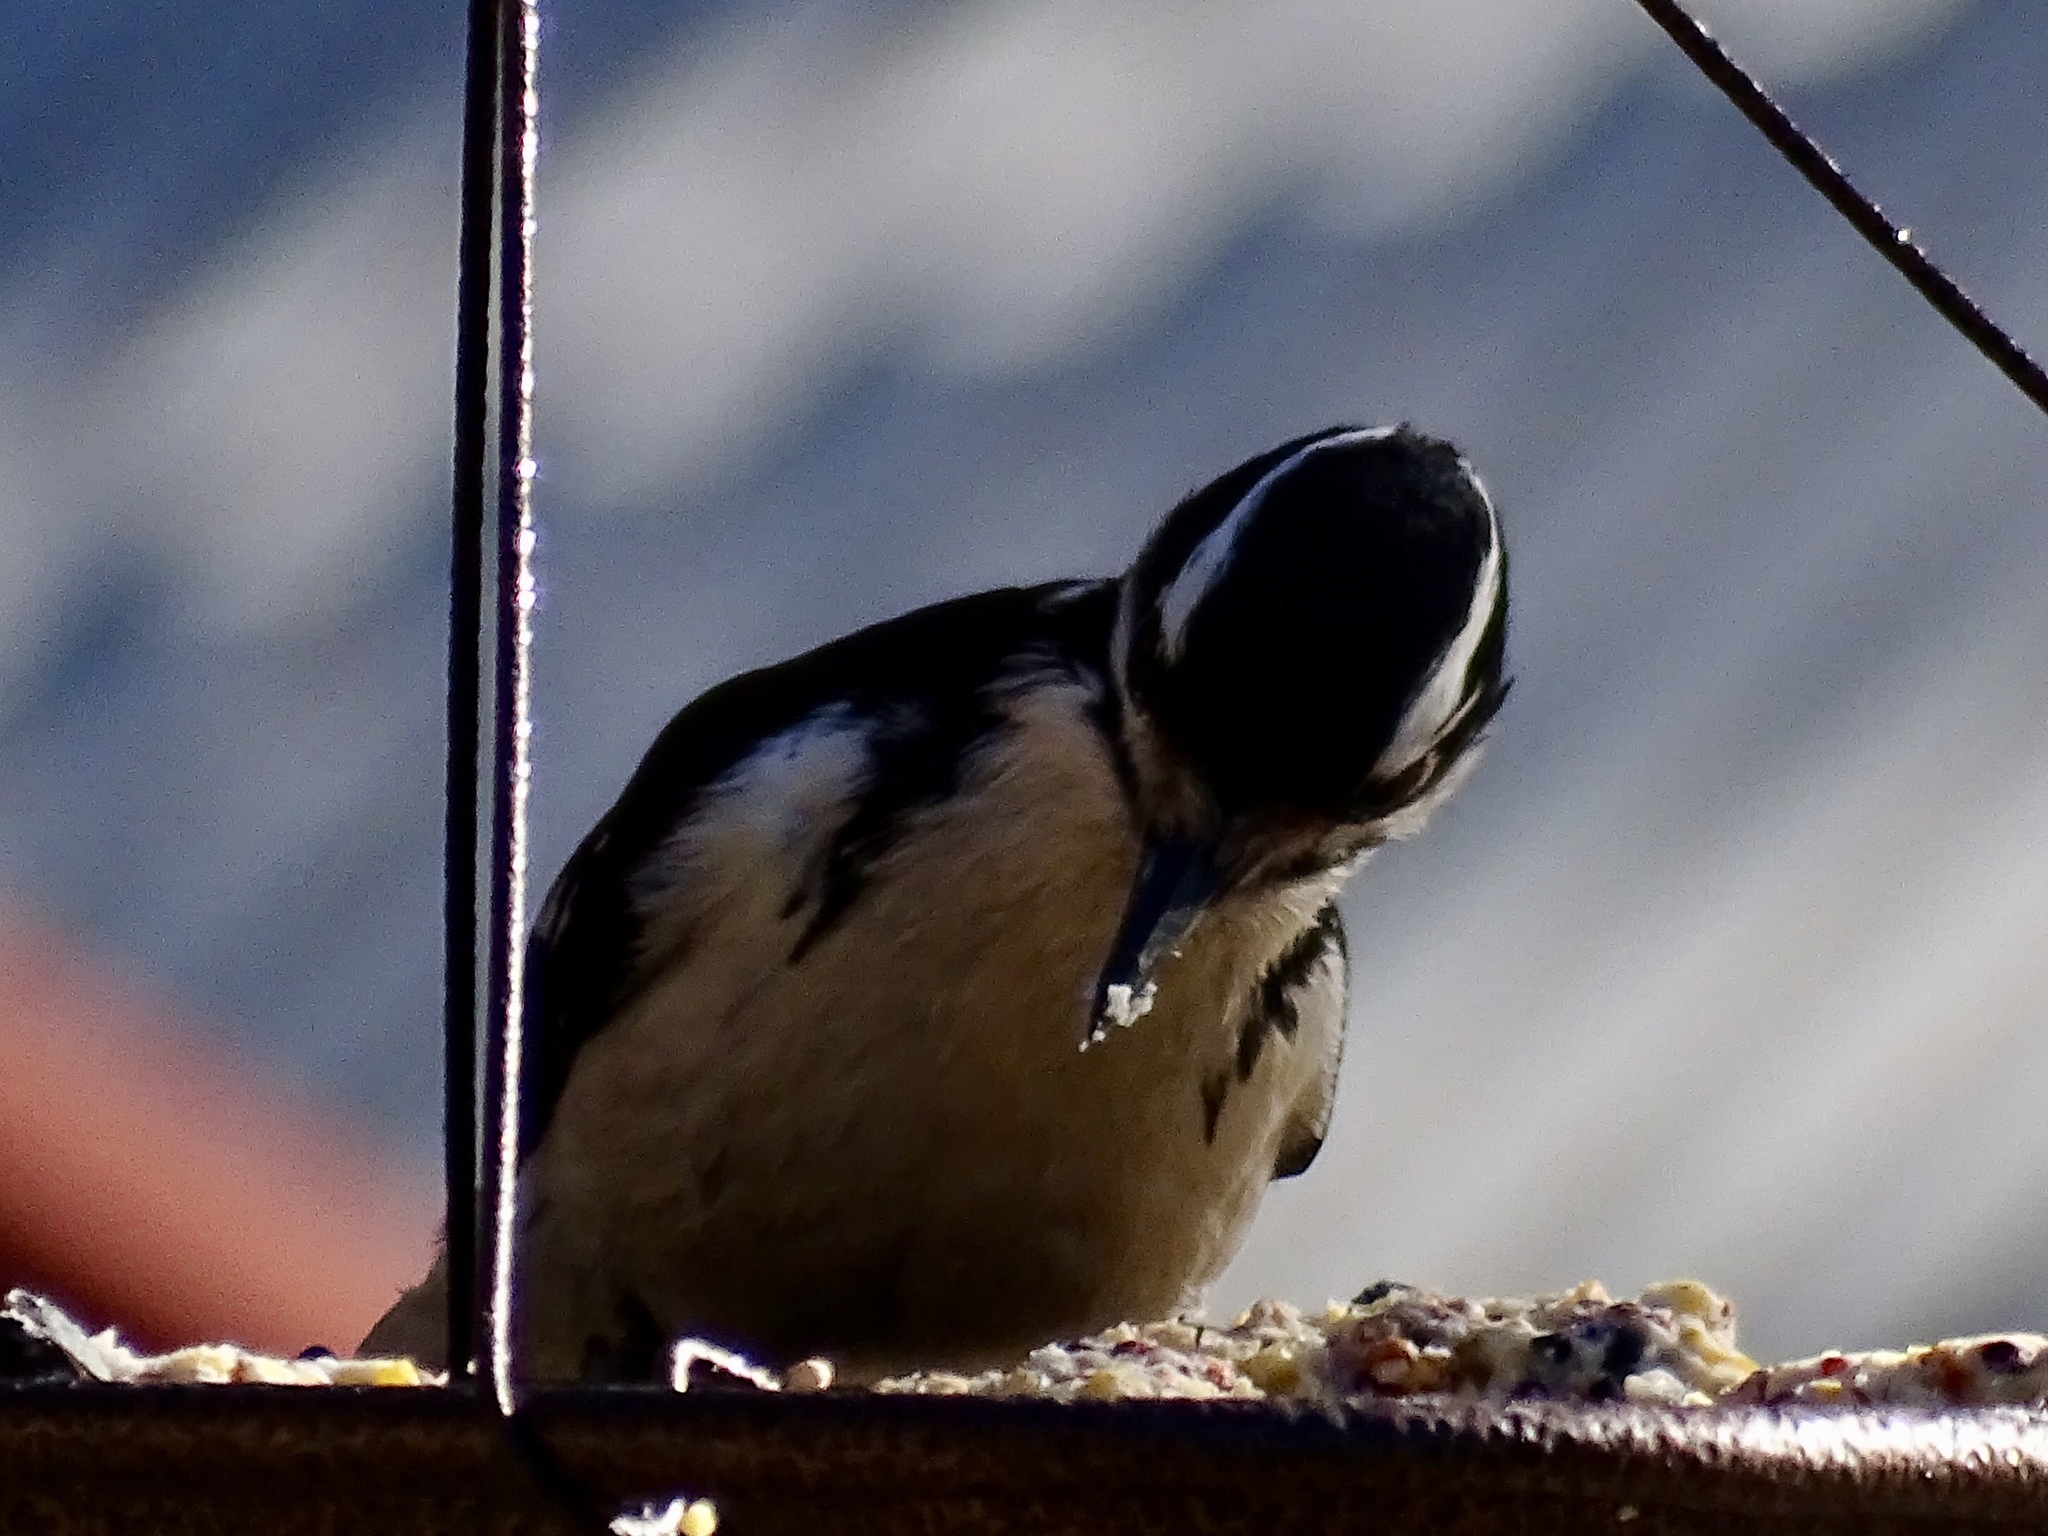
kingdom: Animalia
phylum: Chordata
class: Aves
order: Piciformes
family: Picidae
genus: Leuconotopicus
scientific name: Leuconotopicus villosus
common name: Hairy woodpecker
